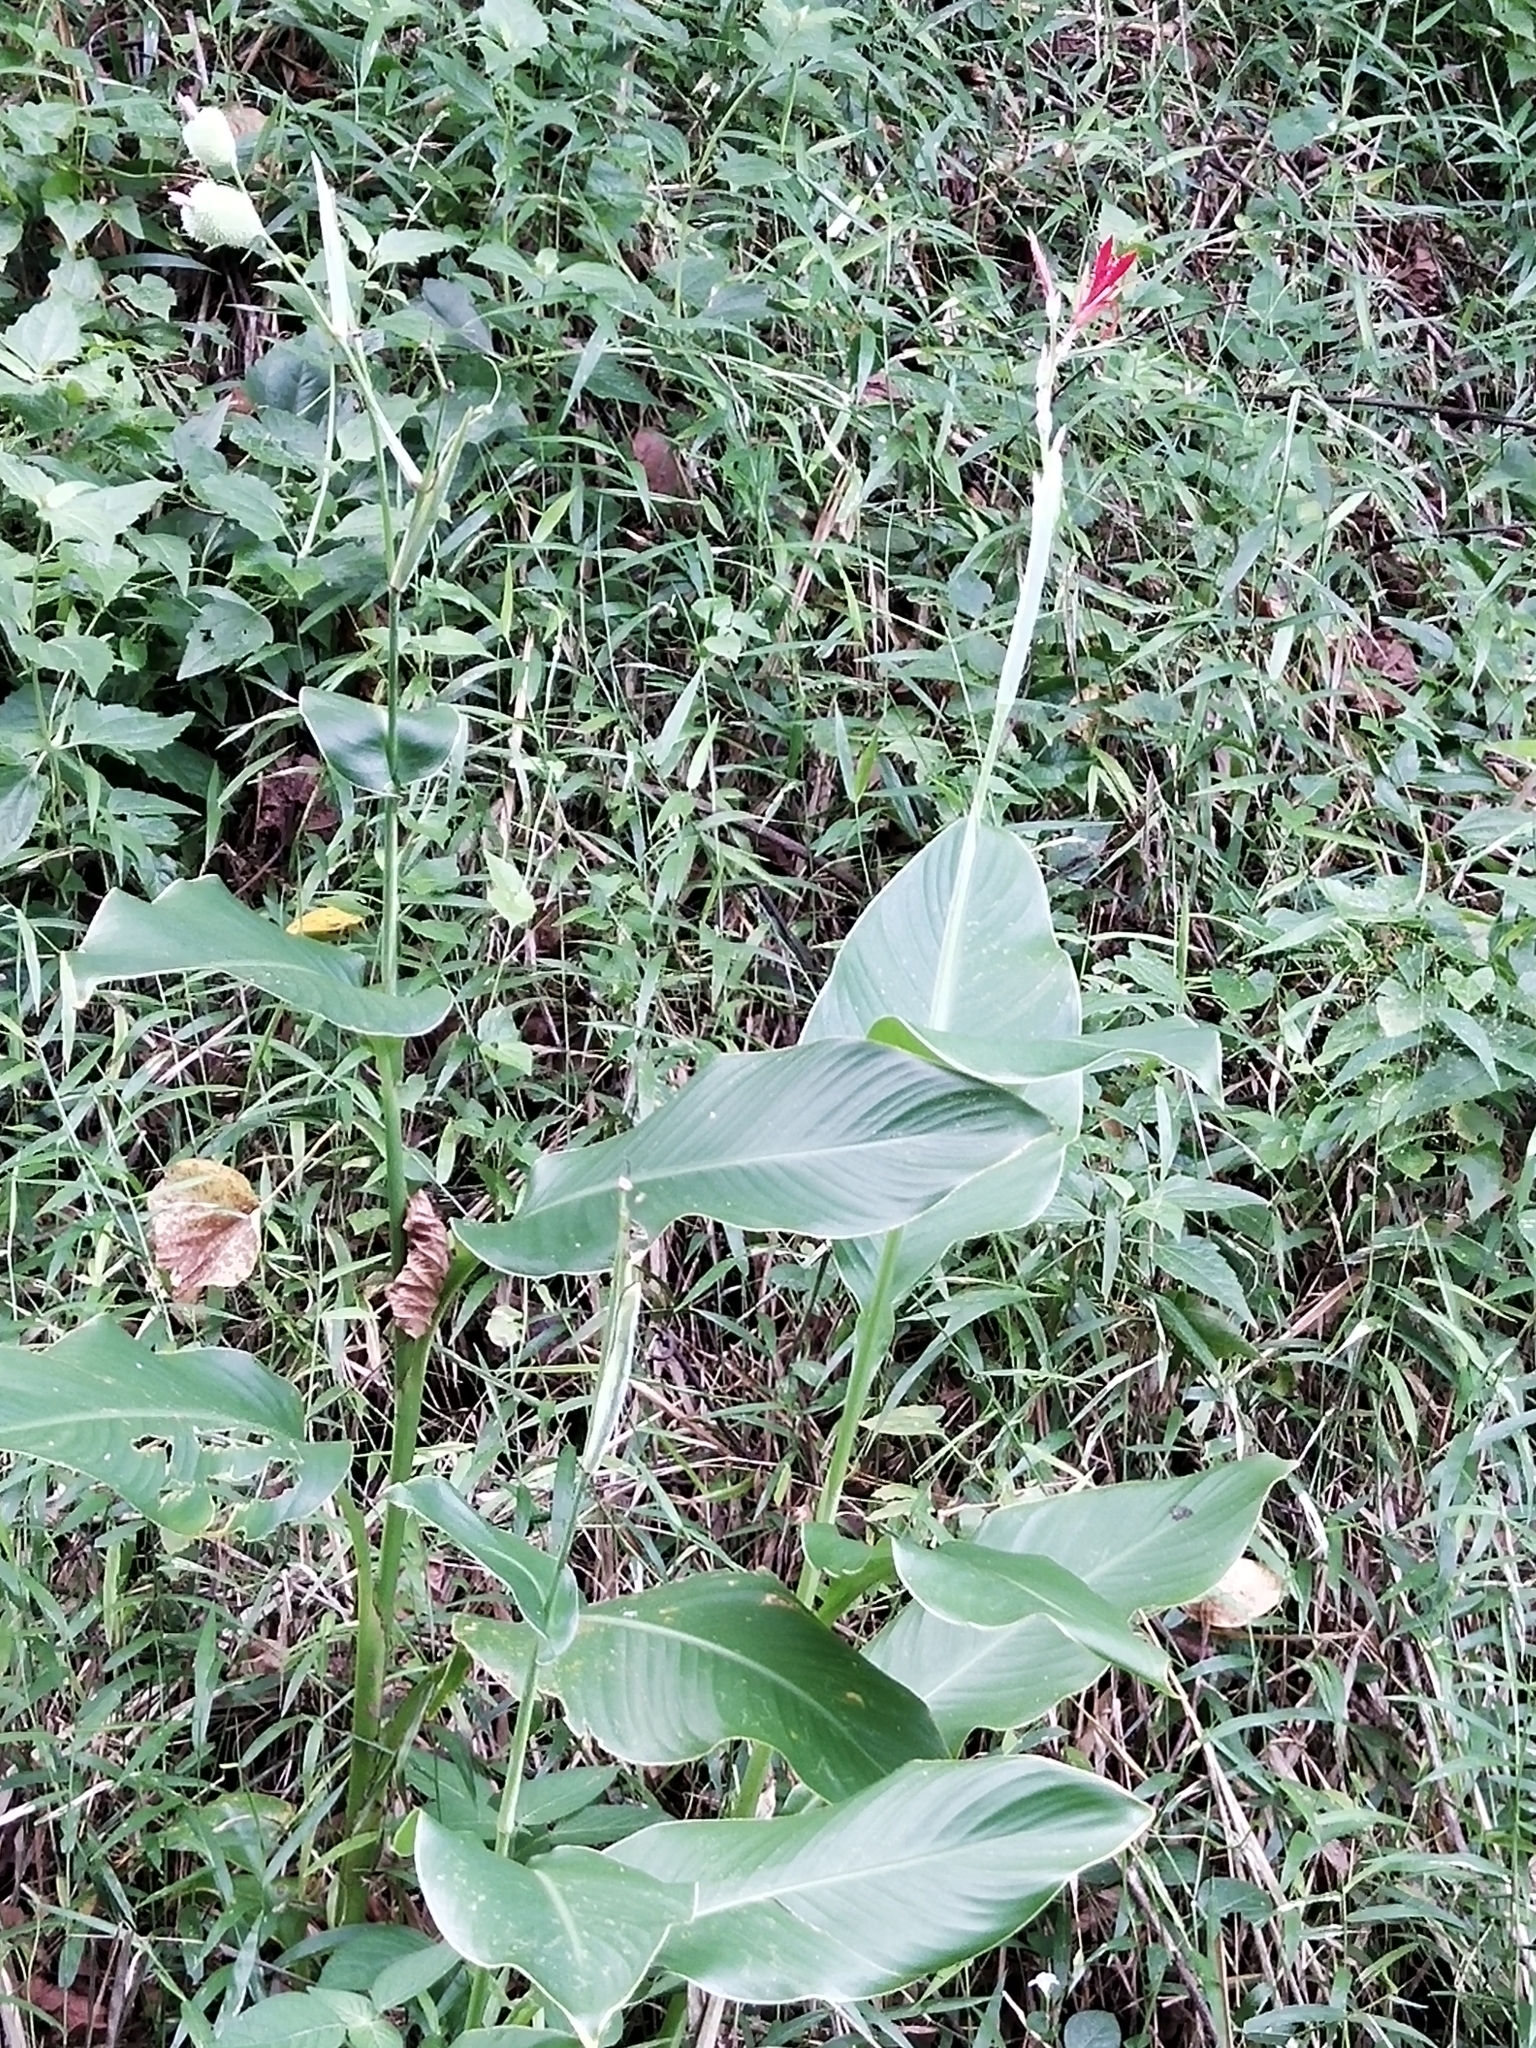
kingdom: Plantae
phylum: Tracheophyta
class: Liliopsida
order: Zingiberales
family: Cannaceae
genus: Canna
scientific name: Canna indica
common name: Indian shot
